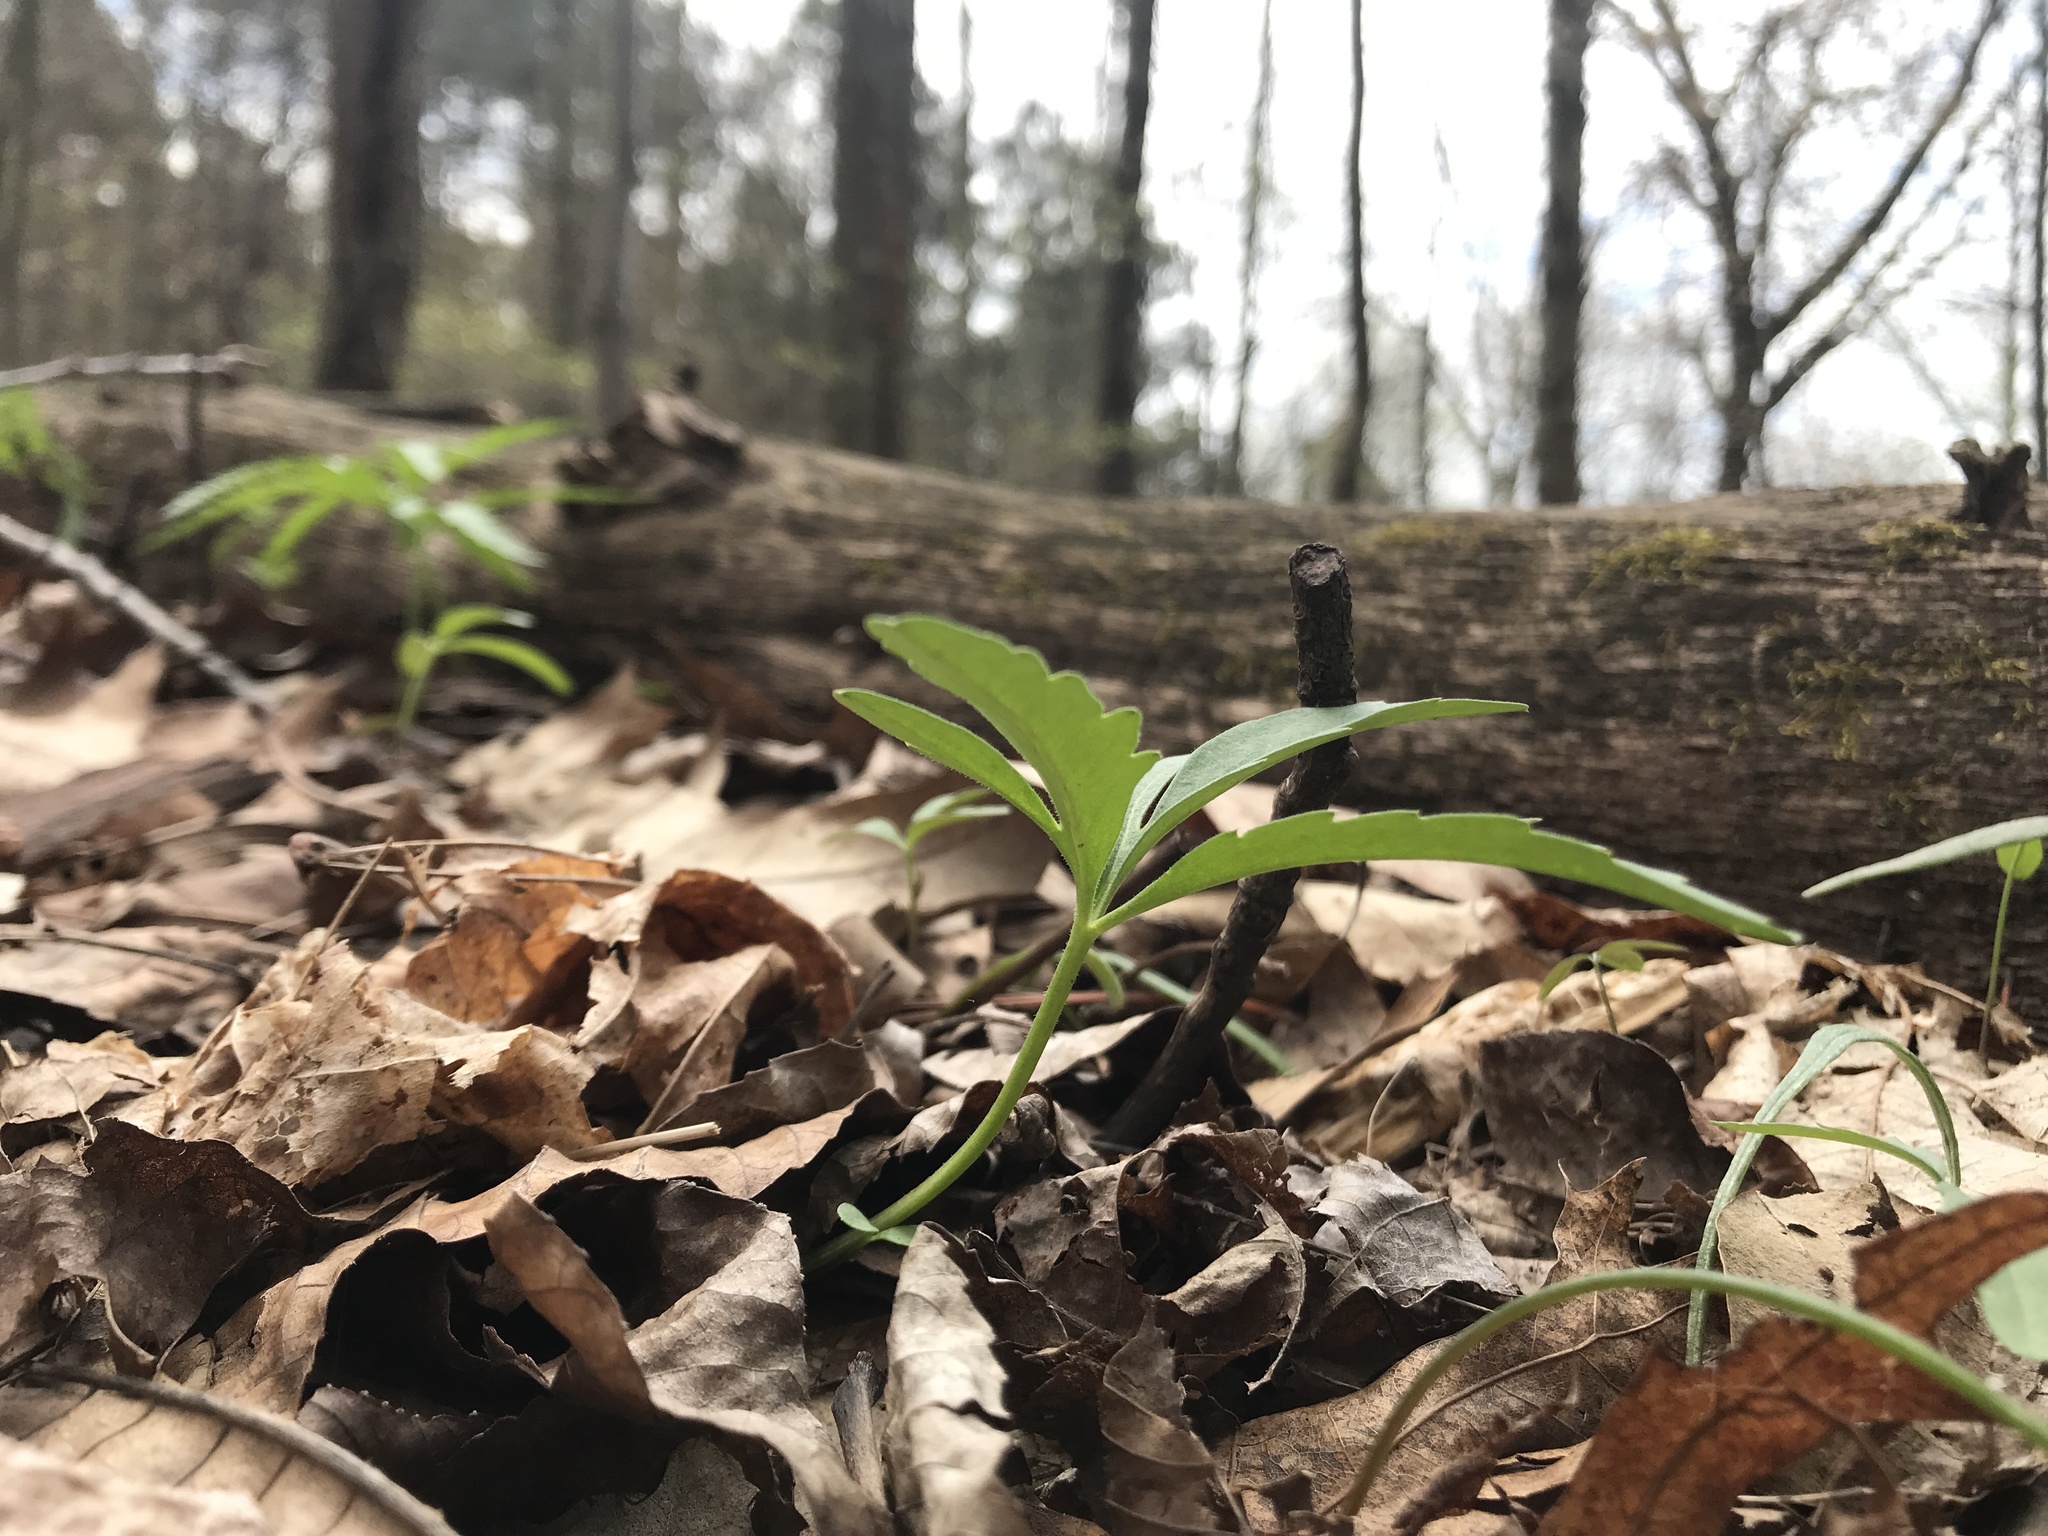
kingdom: Plantae
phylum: Tracheophyta
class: Magnoliopsida
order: Brassicales
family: Brassicaceae
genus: Cardamine
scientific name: Cardamine concatenata
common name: Cut-leaf toothcup
